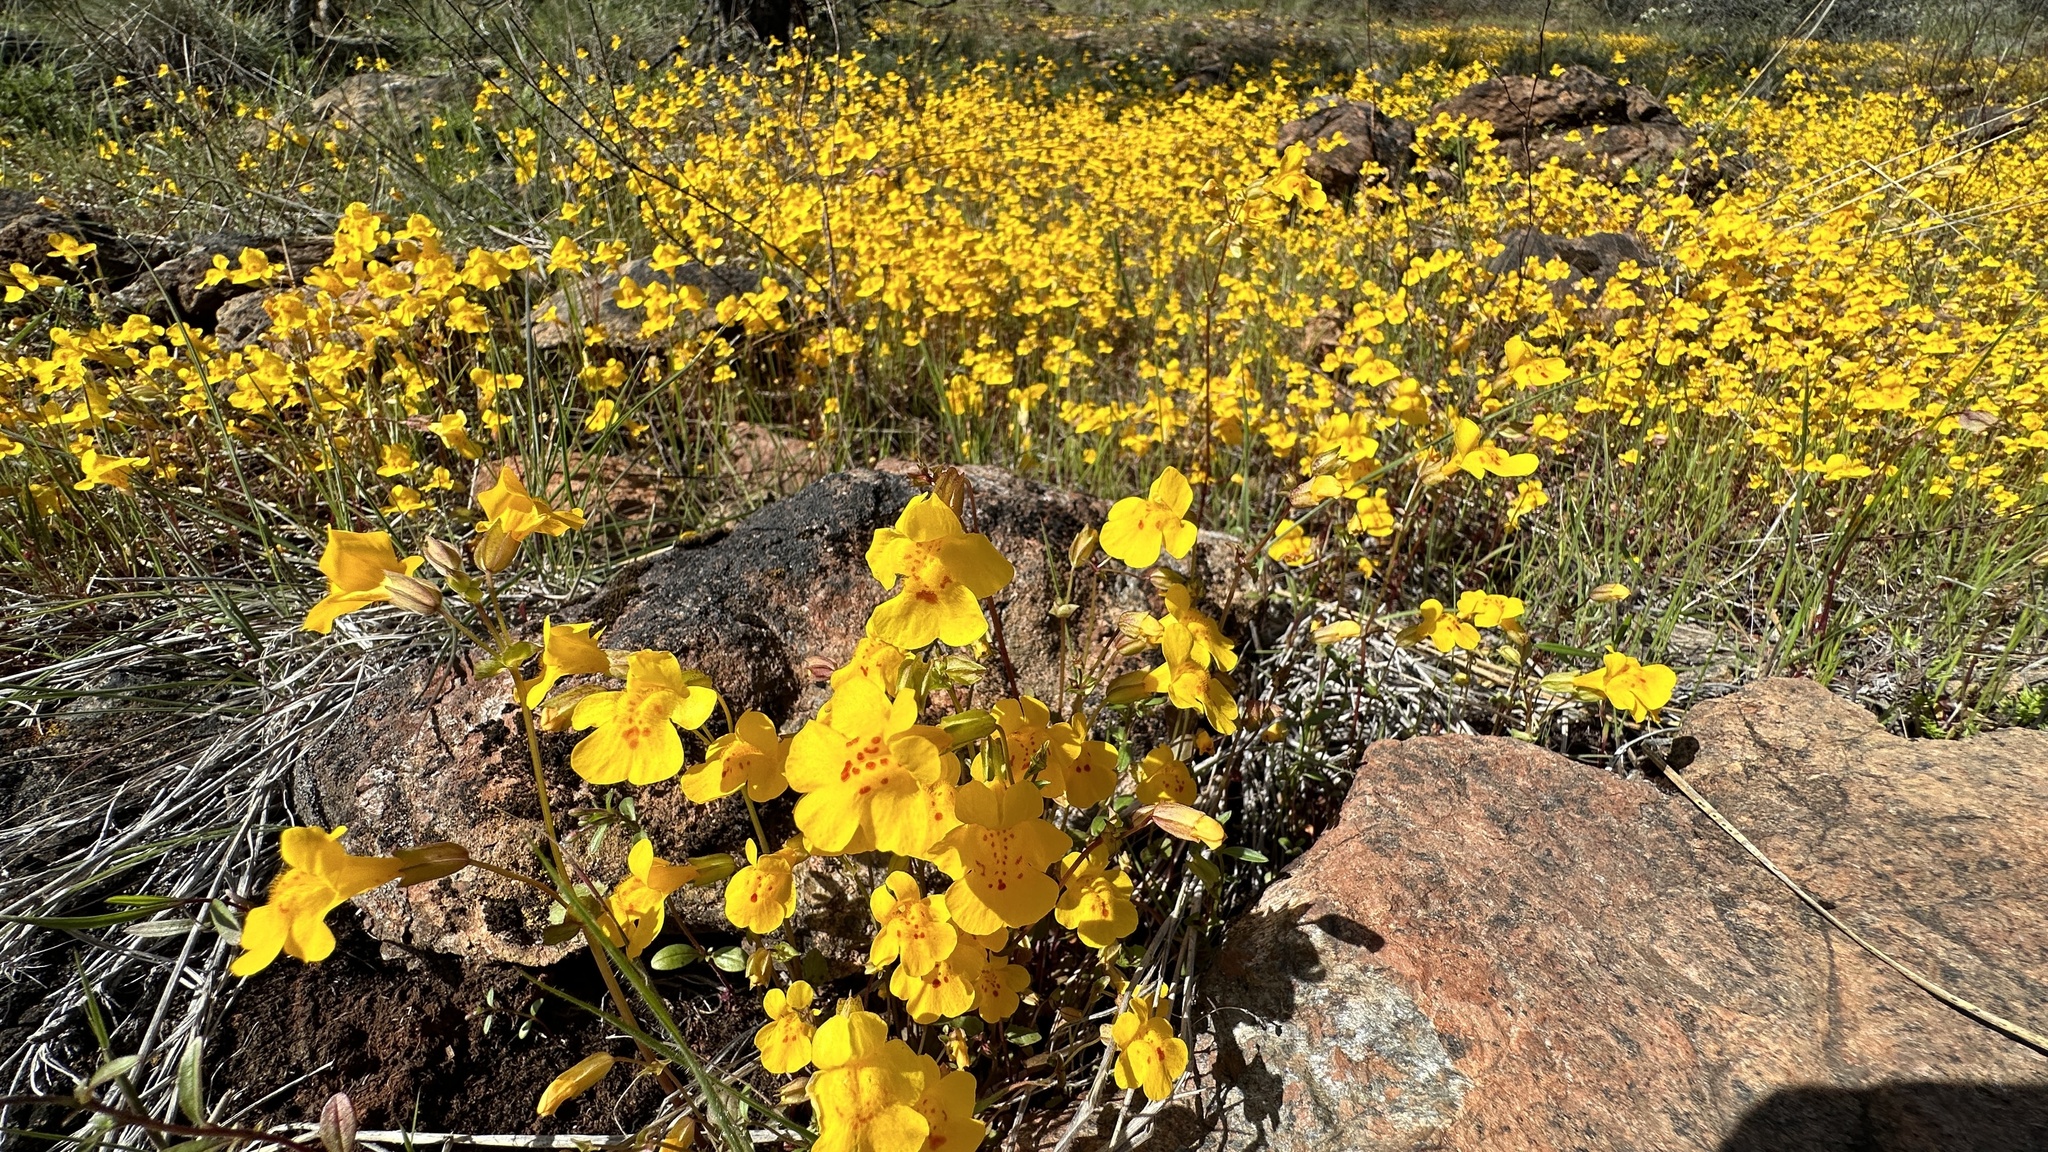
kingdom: Plantae
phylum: Tracheophyta
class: Magnoliopsida
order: Lamiales
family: Phrymaceae
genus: Erythranthe
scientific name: Erythranthe microphylla
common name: Bentham's monkeyflower
